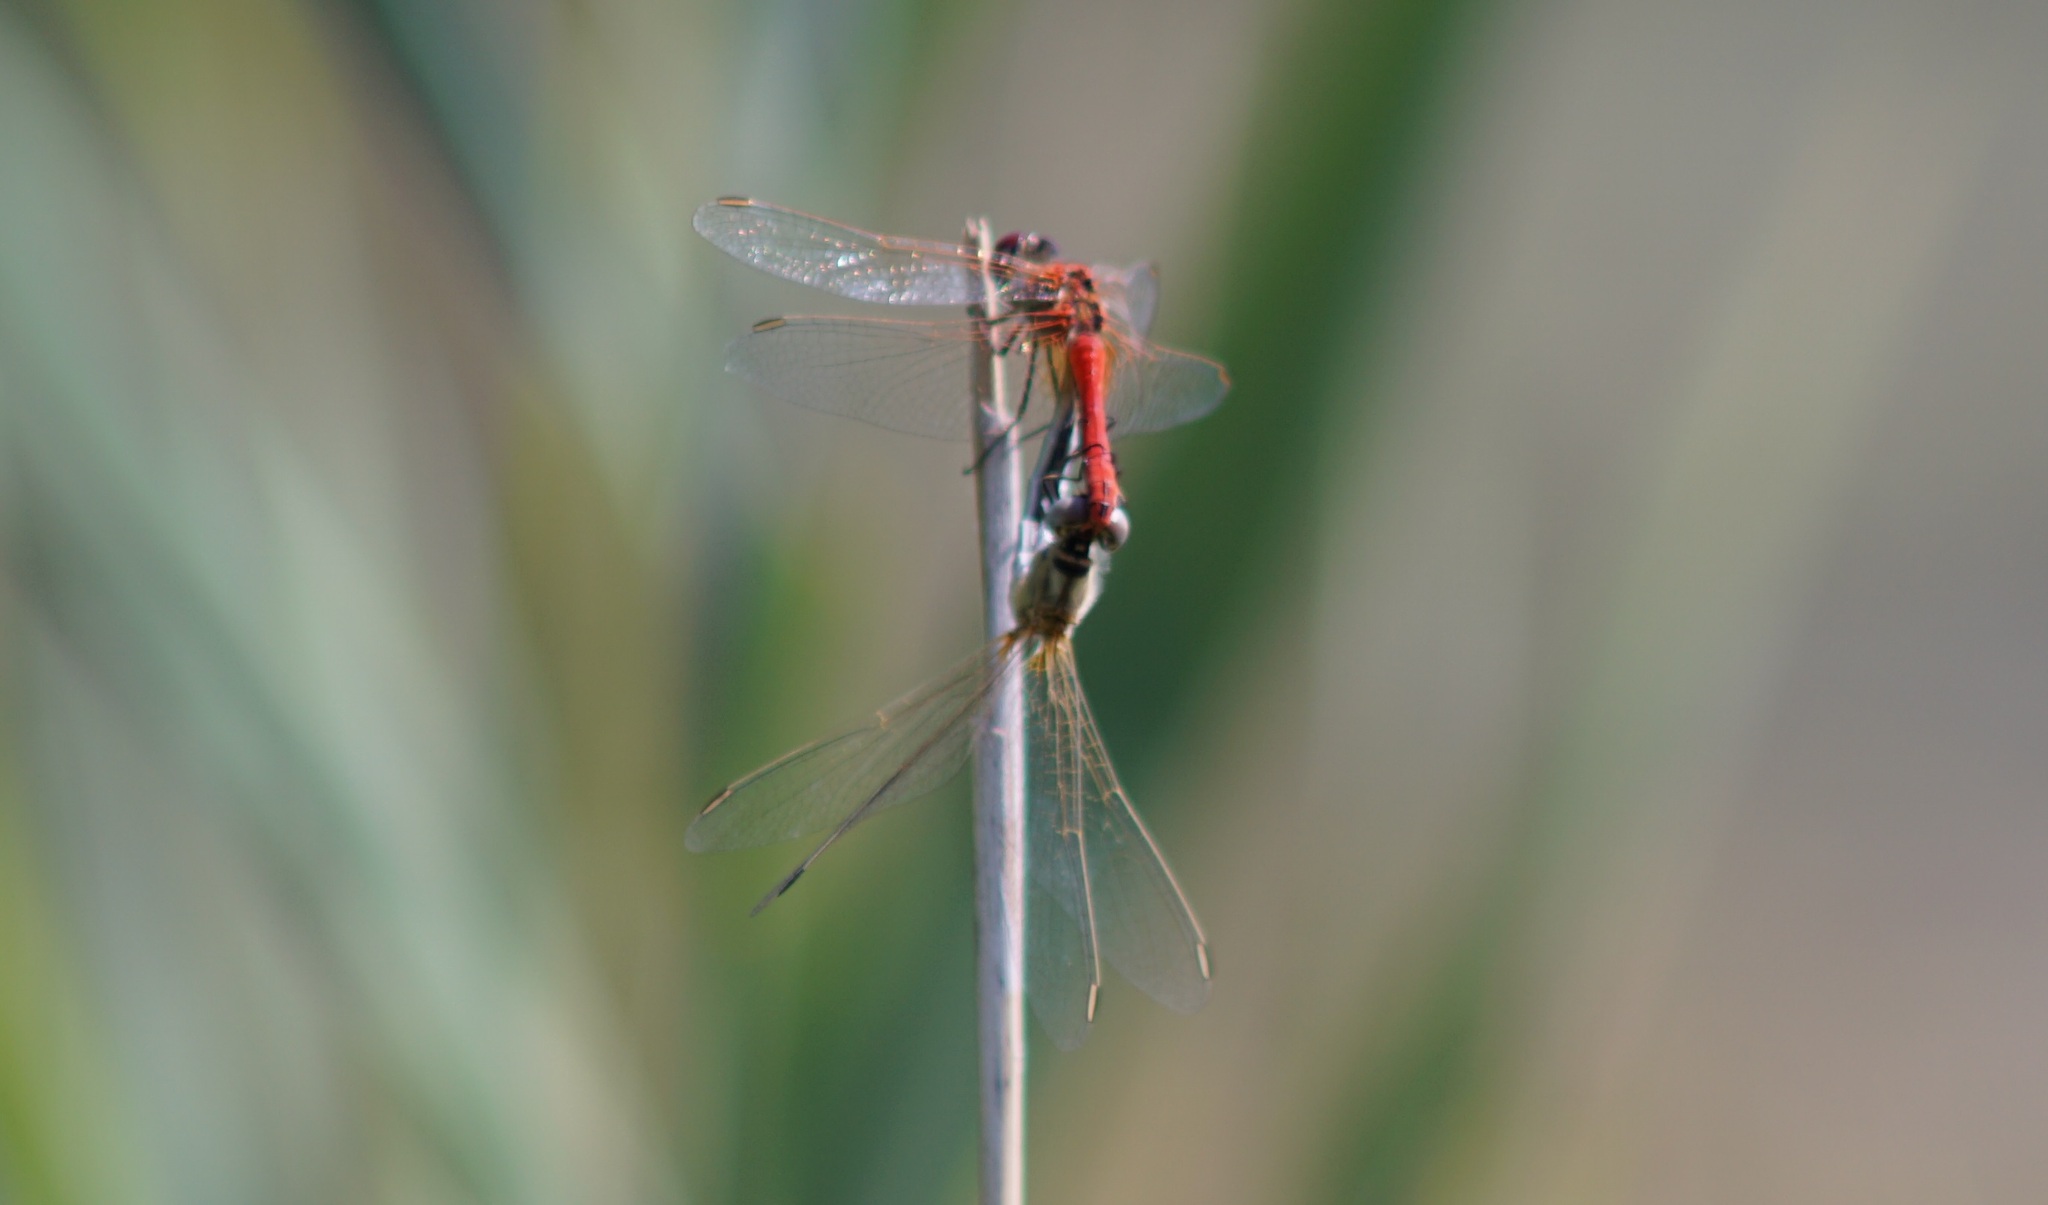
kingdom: Animalia
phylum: Arthropoda
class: Insecta
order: Odonata
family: Libellulidae
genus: Sympetrum
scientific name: Sympetrum fonscolombii
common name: Red-veined darter
